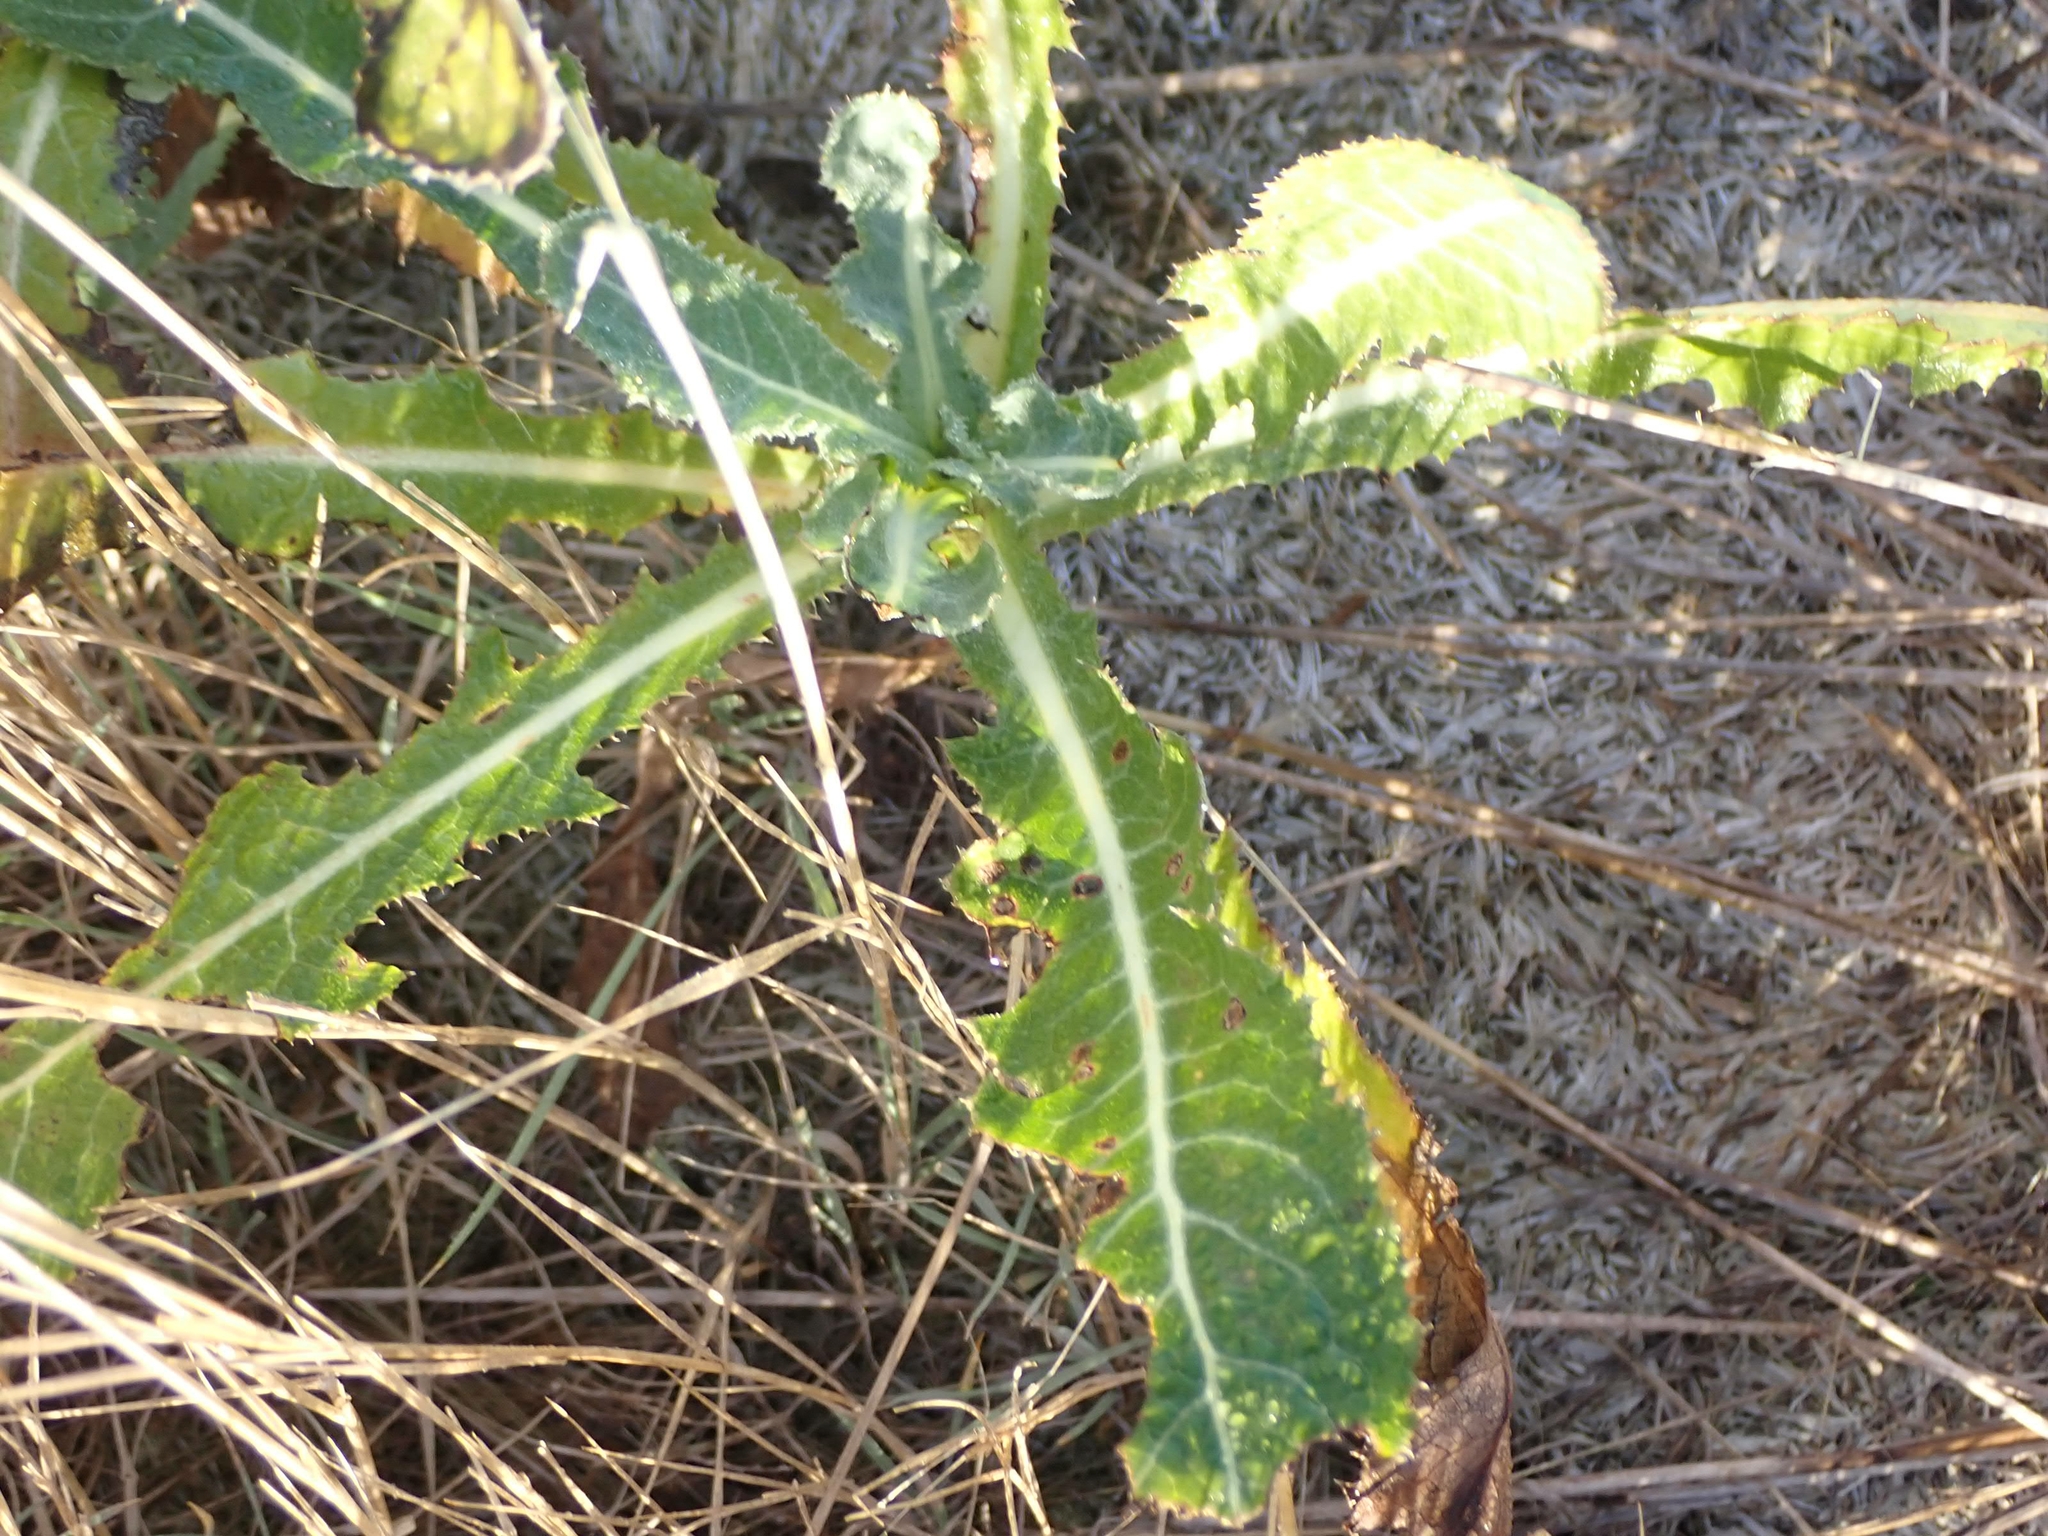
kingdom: Plantae
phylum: Tracheophyta
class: Magnoliopsida
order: Asterales
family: Asteraceae
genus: Sonchus
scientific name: Sonchus arvensis
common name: Perennial sow-thistle
